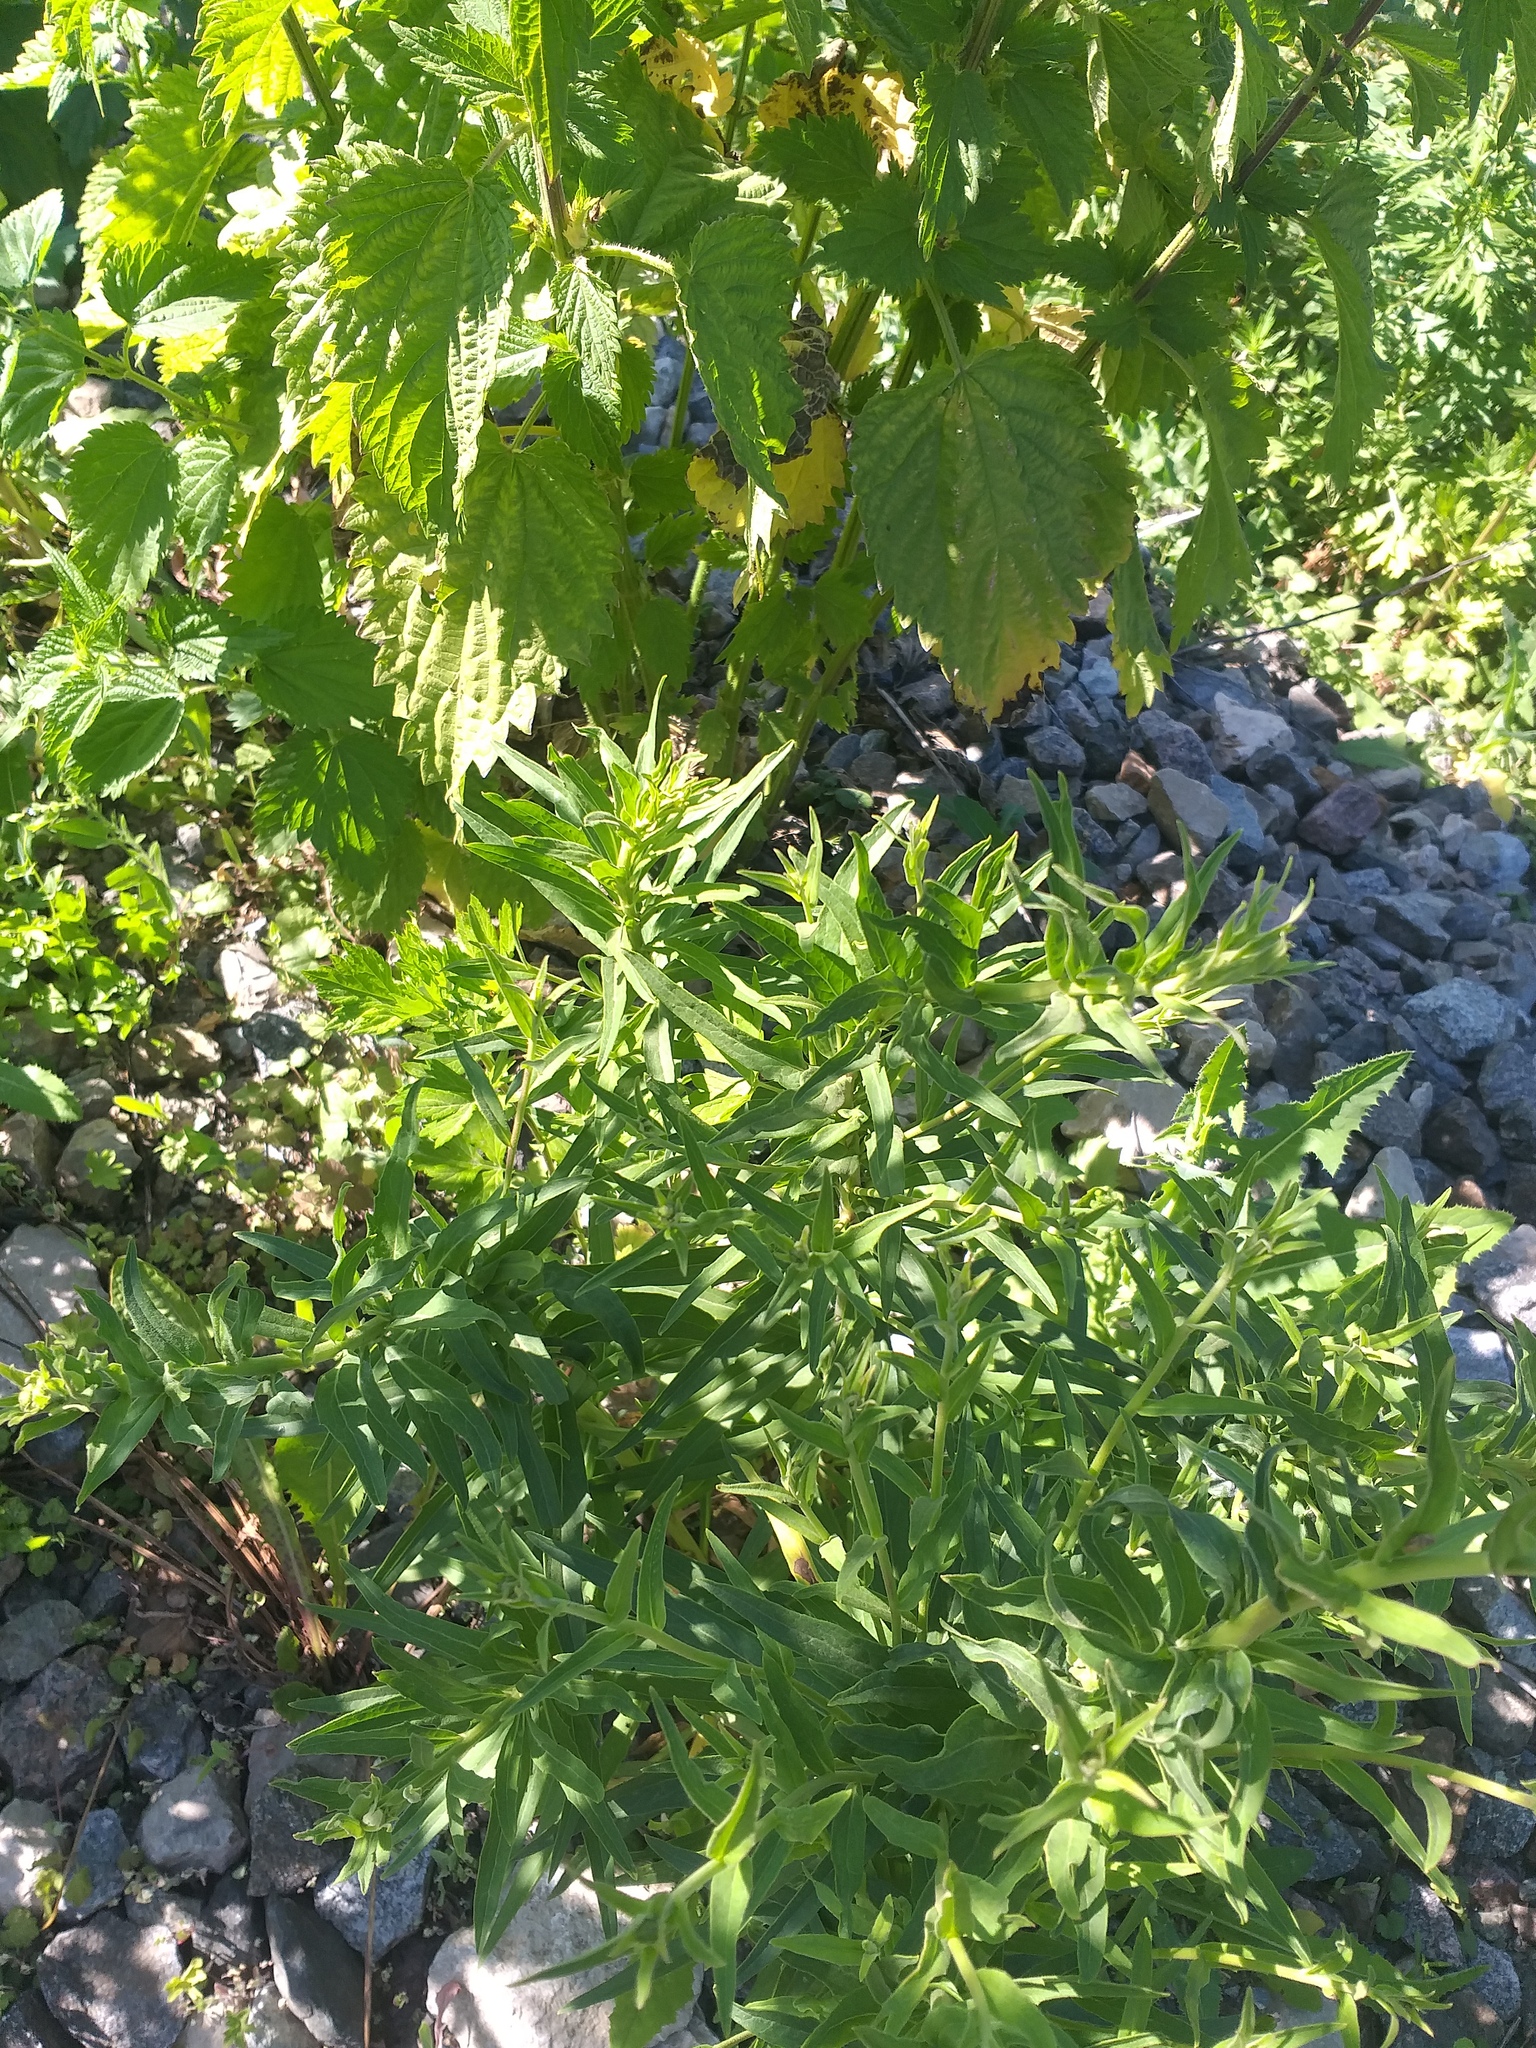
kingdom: Plantae
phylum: Tracheophyta
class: Magnoliopsida
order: Asterales
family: Asteraceae
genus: Hieracium
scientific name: Hieracium umbellatum
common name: Northern hawkweed
